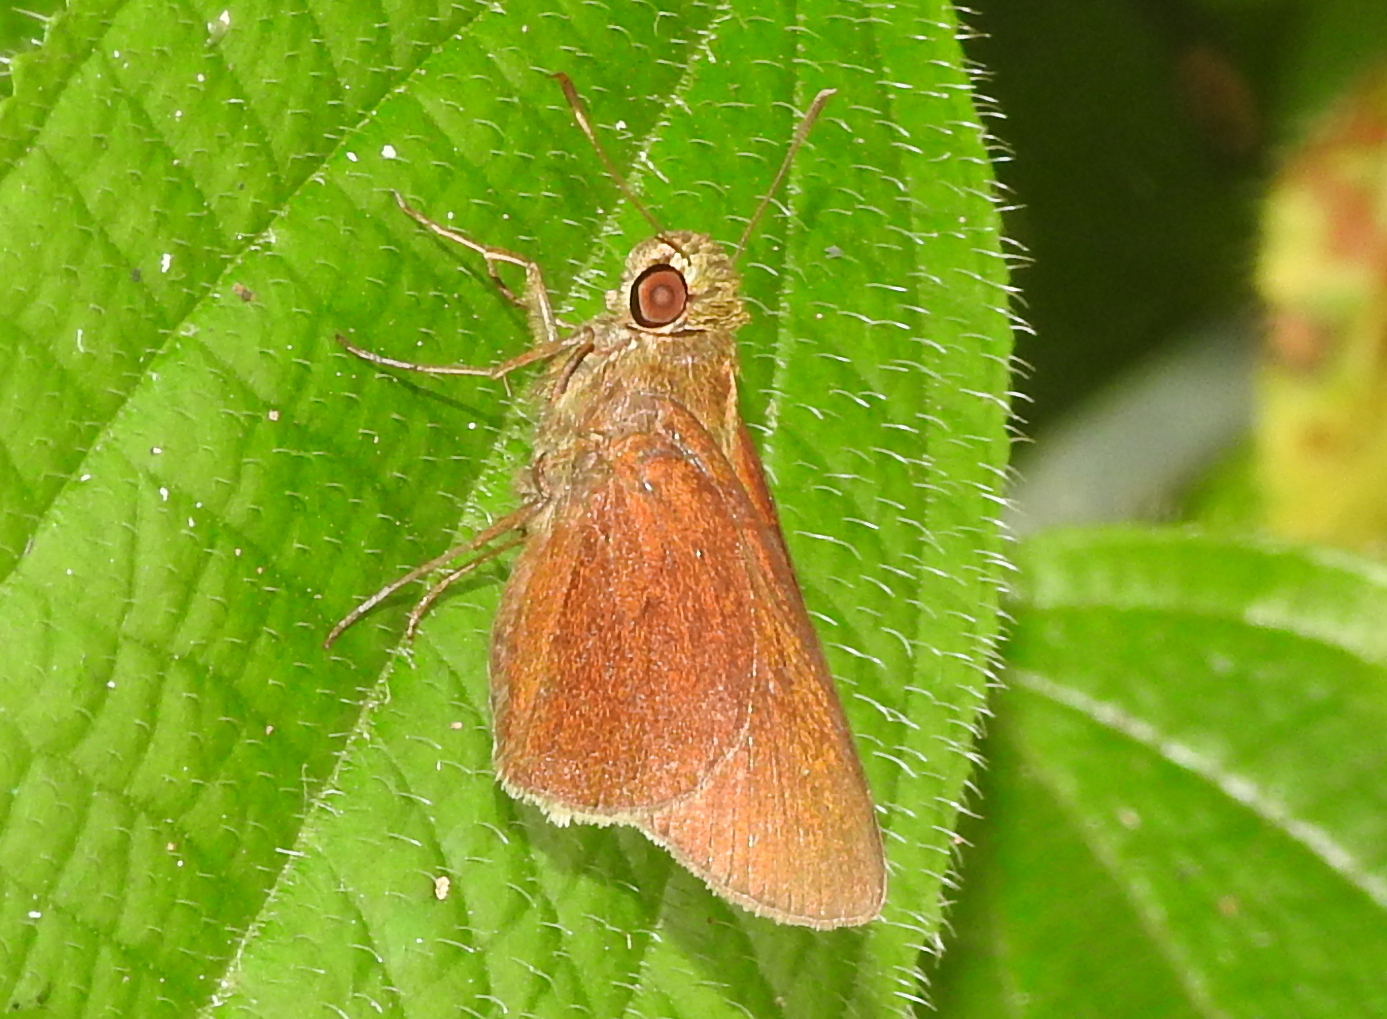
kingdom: Animalia
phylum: Arthropoda
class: Insecta
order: Lepidoptera
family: Hesperiidae
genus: Caltoris
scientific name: Caltoris cormasa
